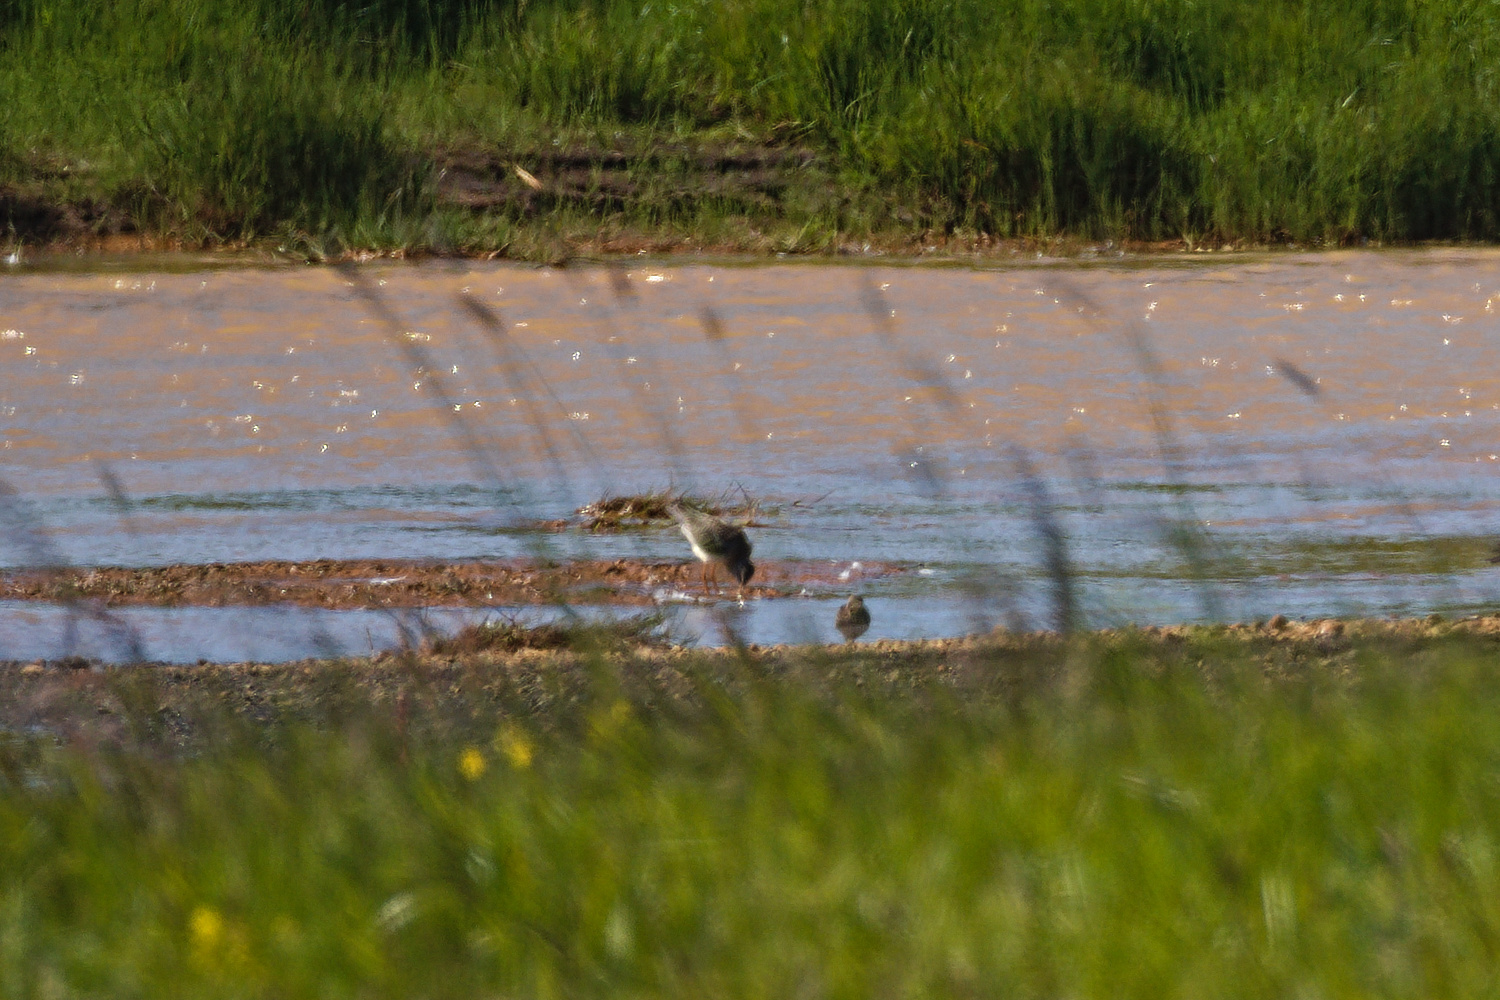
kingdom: Animalia
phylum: Chordata
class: Aves
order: Charadriiformes
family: Scolopacidae
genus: Tringa
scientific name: Tringa totanus
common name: Common redshank
